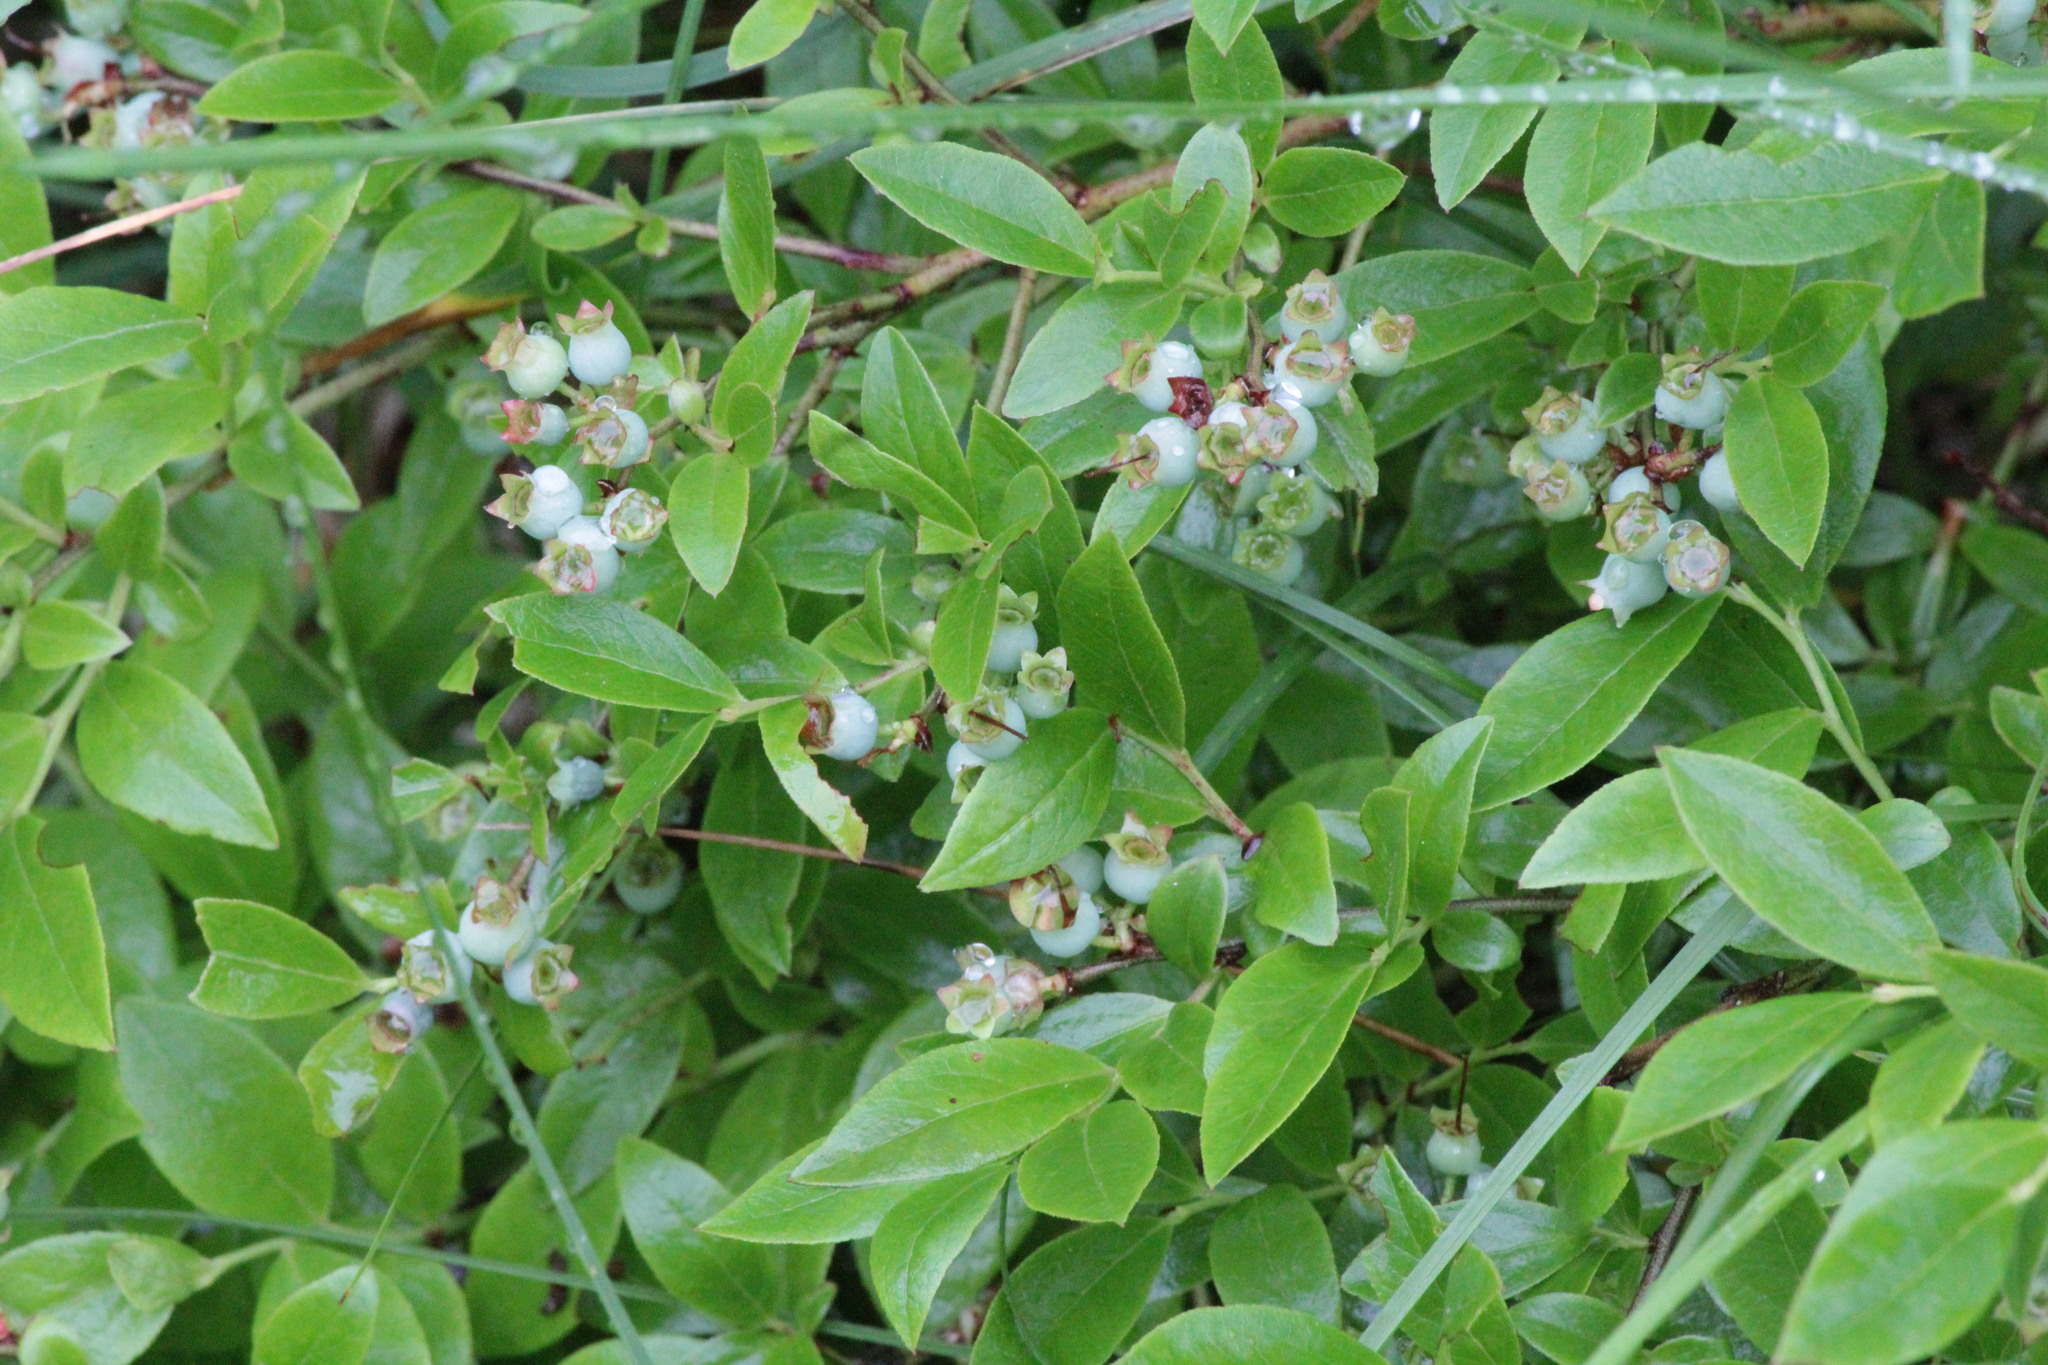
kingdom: Plantae
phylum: Tracheophyta
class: Magnoliopsida
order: Ericales
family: Ericaceae
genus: Vaccinium
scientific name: Vaccinium angustifolium
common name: Early lowbush blueberry
